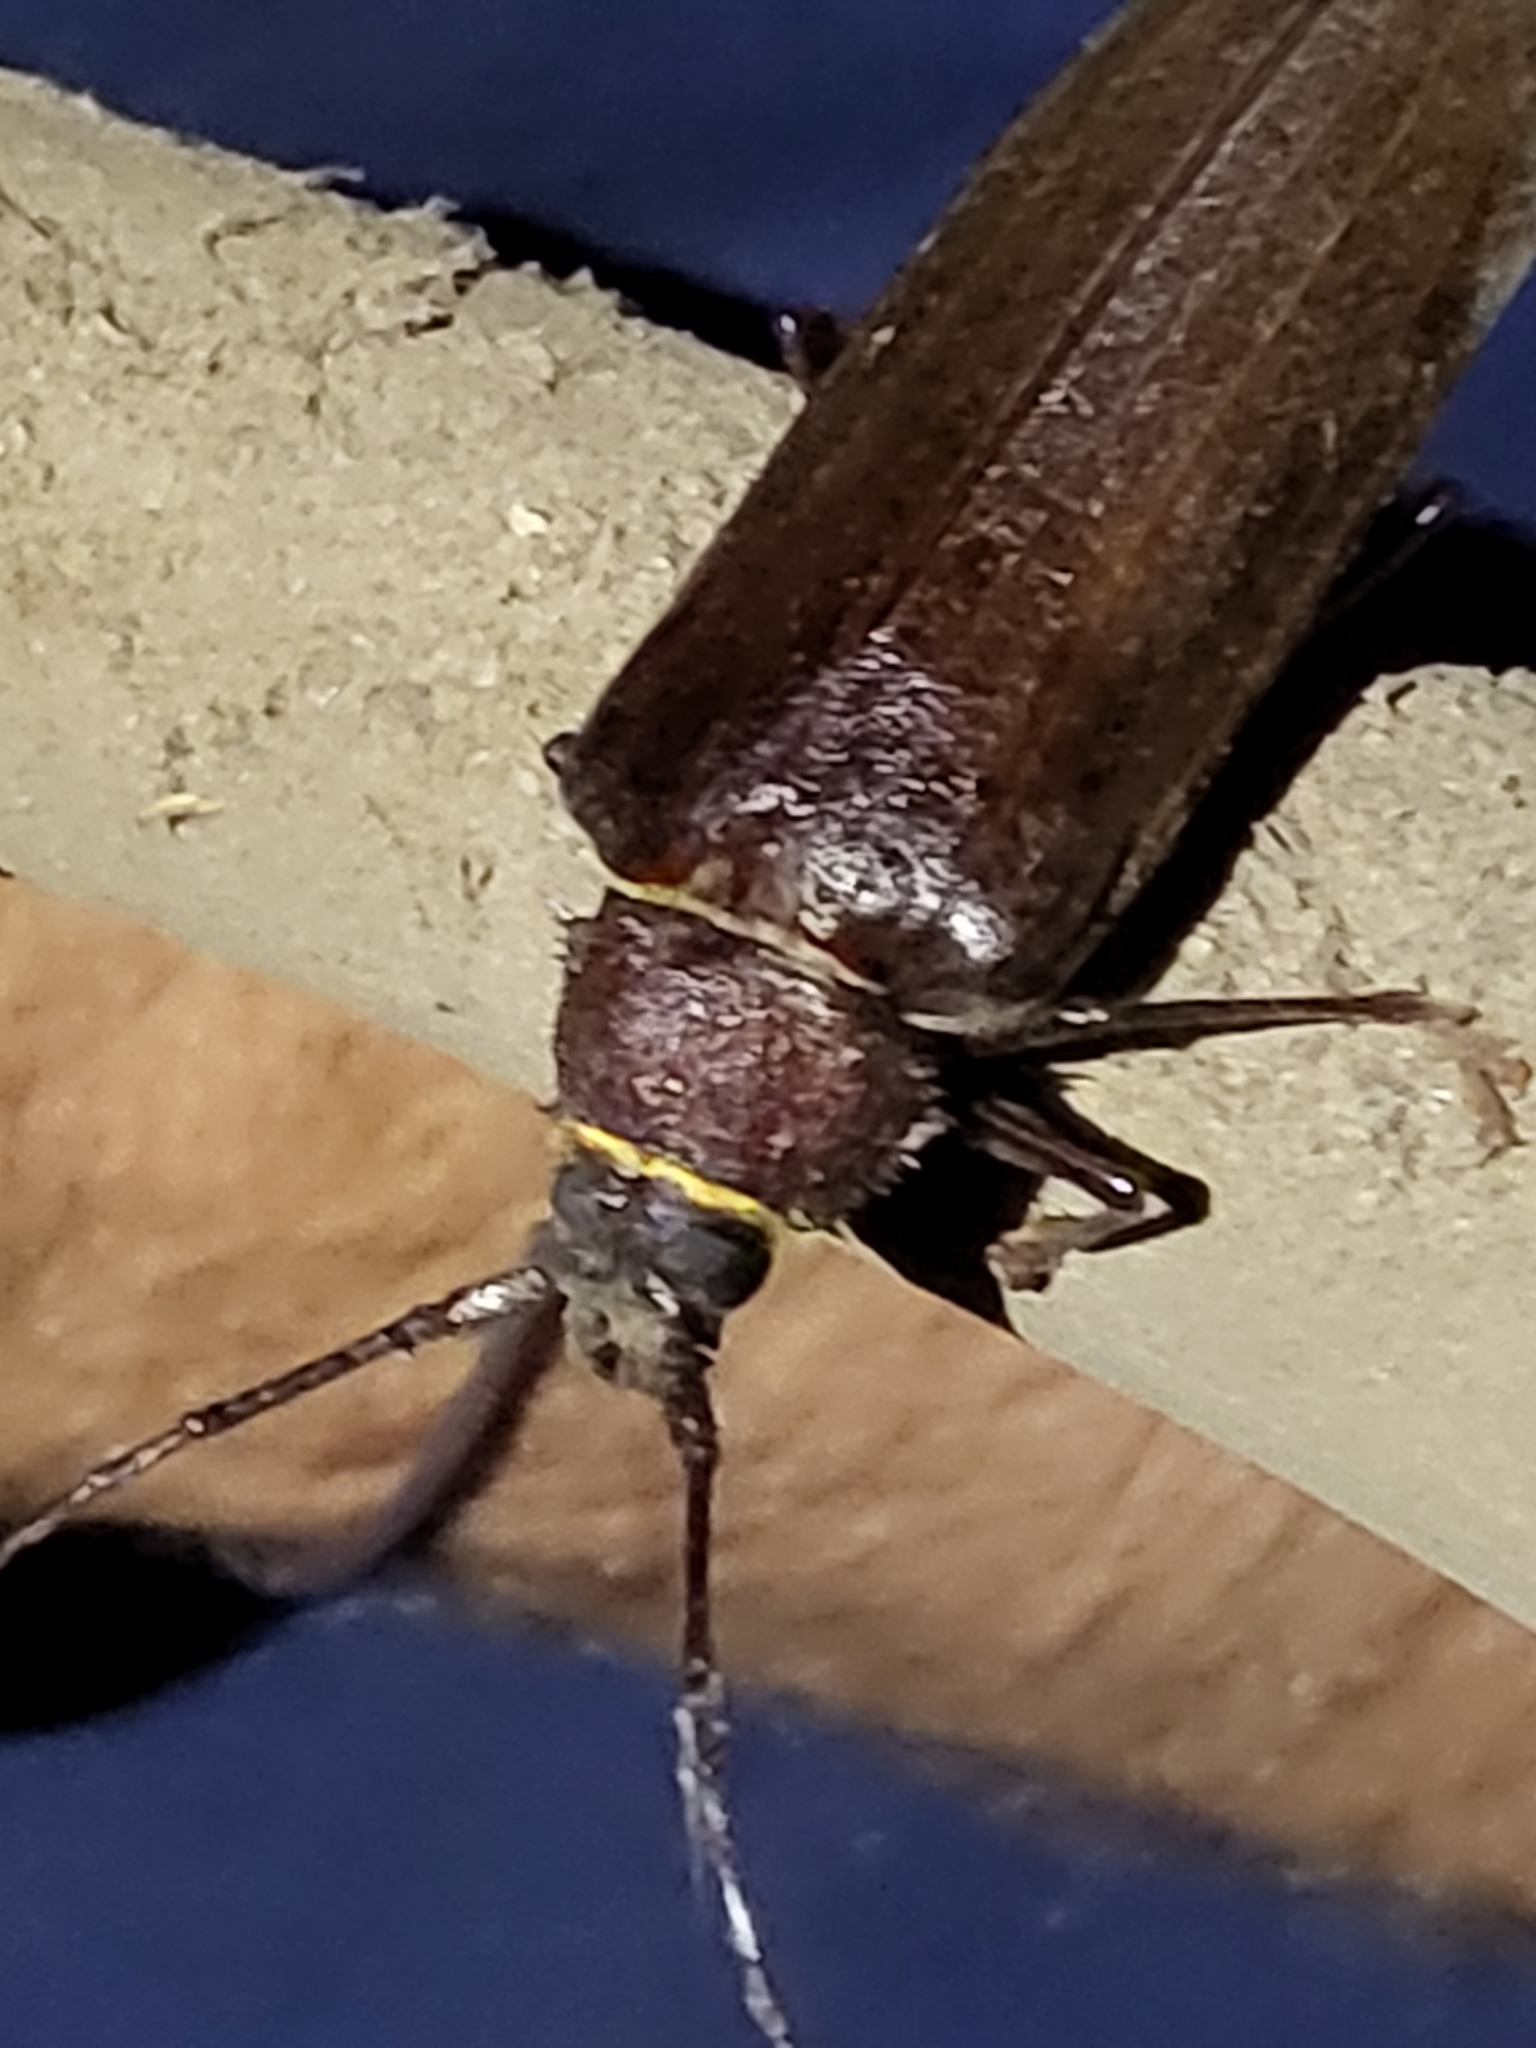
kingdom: Animalia
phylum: Arthropoda
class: Insecta
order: Coleoptera
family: Cerambycidae
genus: Trichocnemis
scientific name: Trichocnemis spiculatus
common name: Long-horned beetle
